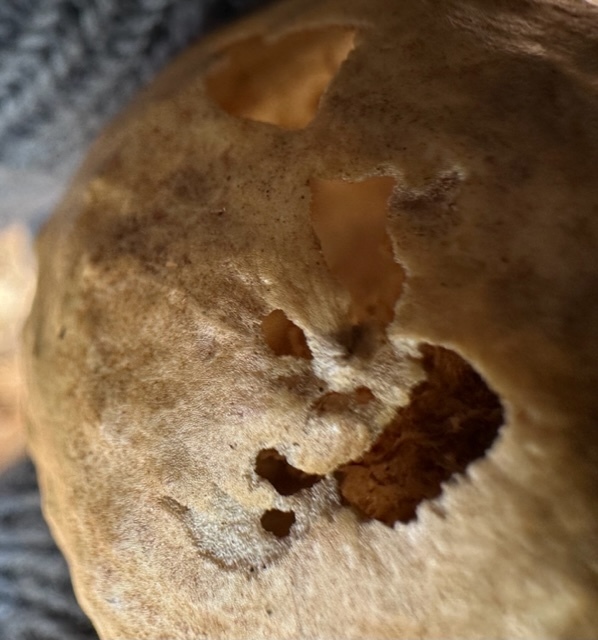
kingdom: Animalia
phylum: Arthropoda
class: Insecta
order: Hymenoptera
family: Cynipidae
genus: Amphibolips
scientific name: Amphibolips
